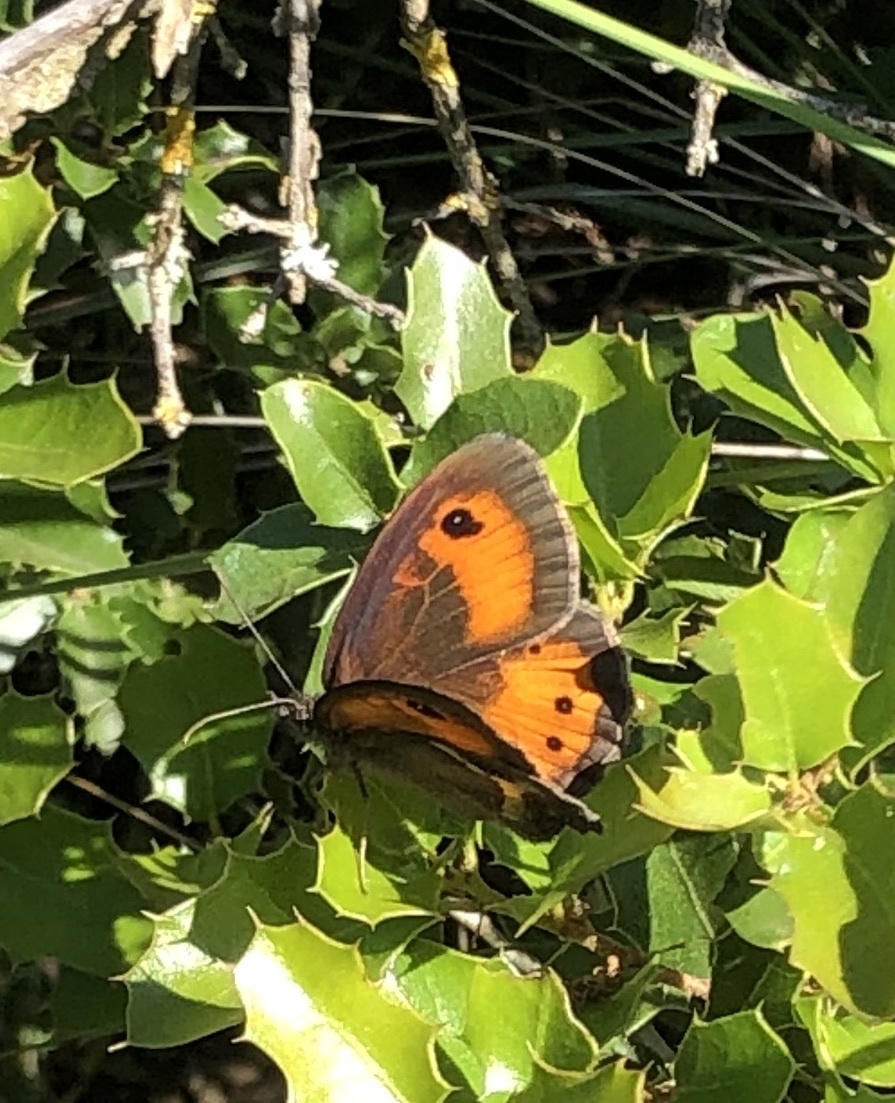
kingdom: Animalia
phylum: Arthropoda
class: Insecta
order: Lepidoptera
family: Nymphalidae
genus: Pyronia
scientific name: Pyronia bathseba
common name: Spanish gatekeeper
